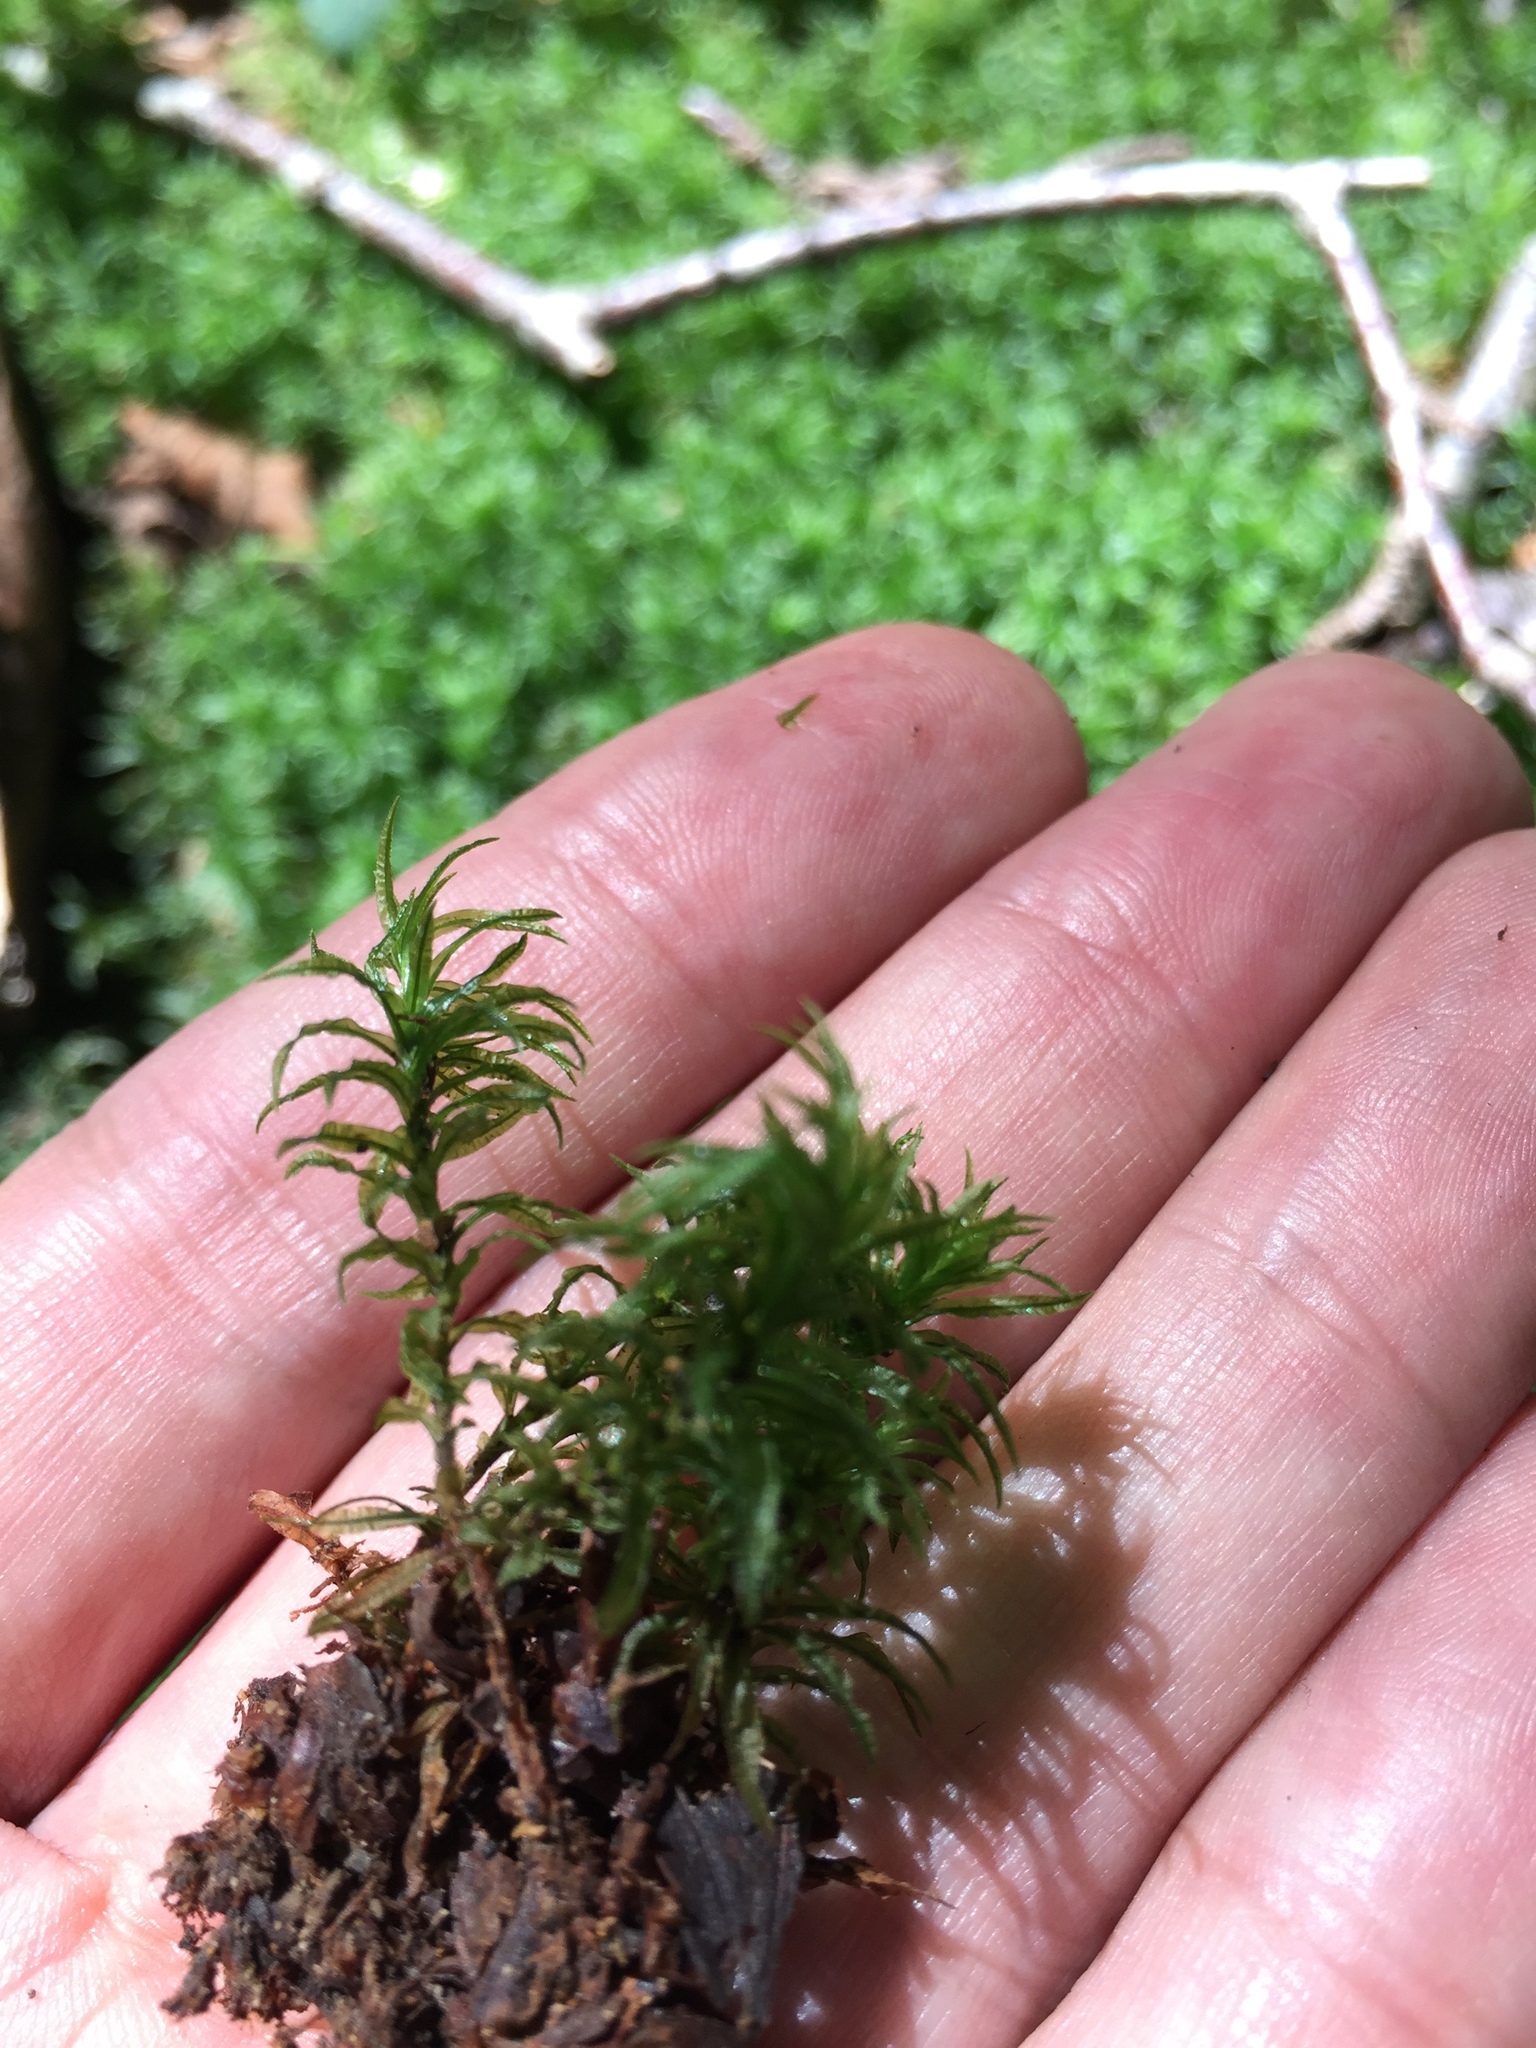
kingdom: Plantae
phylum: Bryophyta
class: Polytrichopsida
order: Polytrichales
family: Polytrichaceae
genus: Atrichum
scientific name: Atrichum undulatum
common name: Common smoothcap
